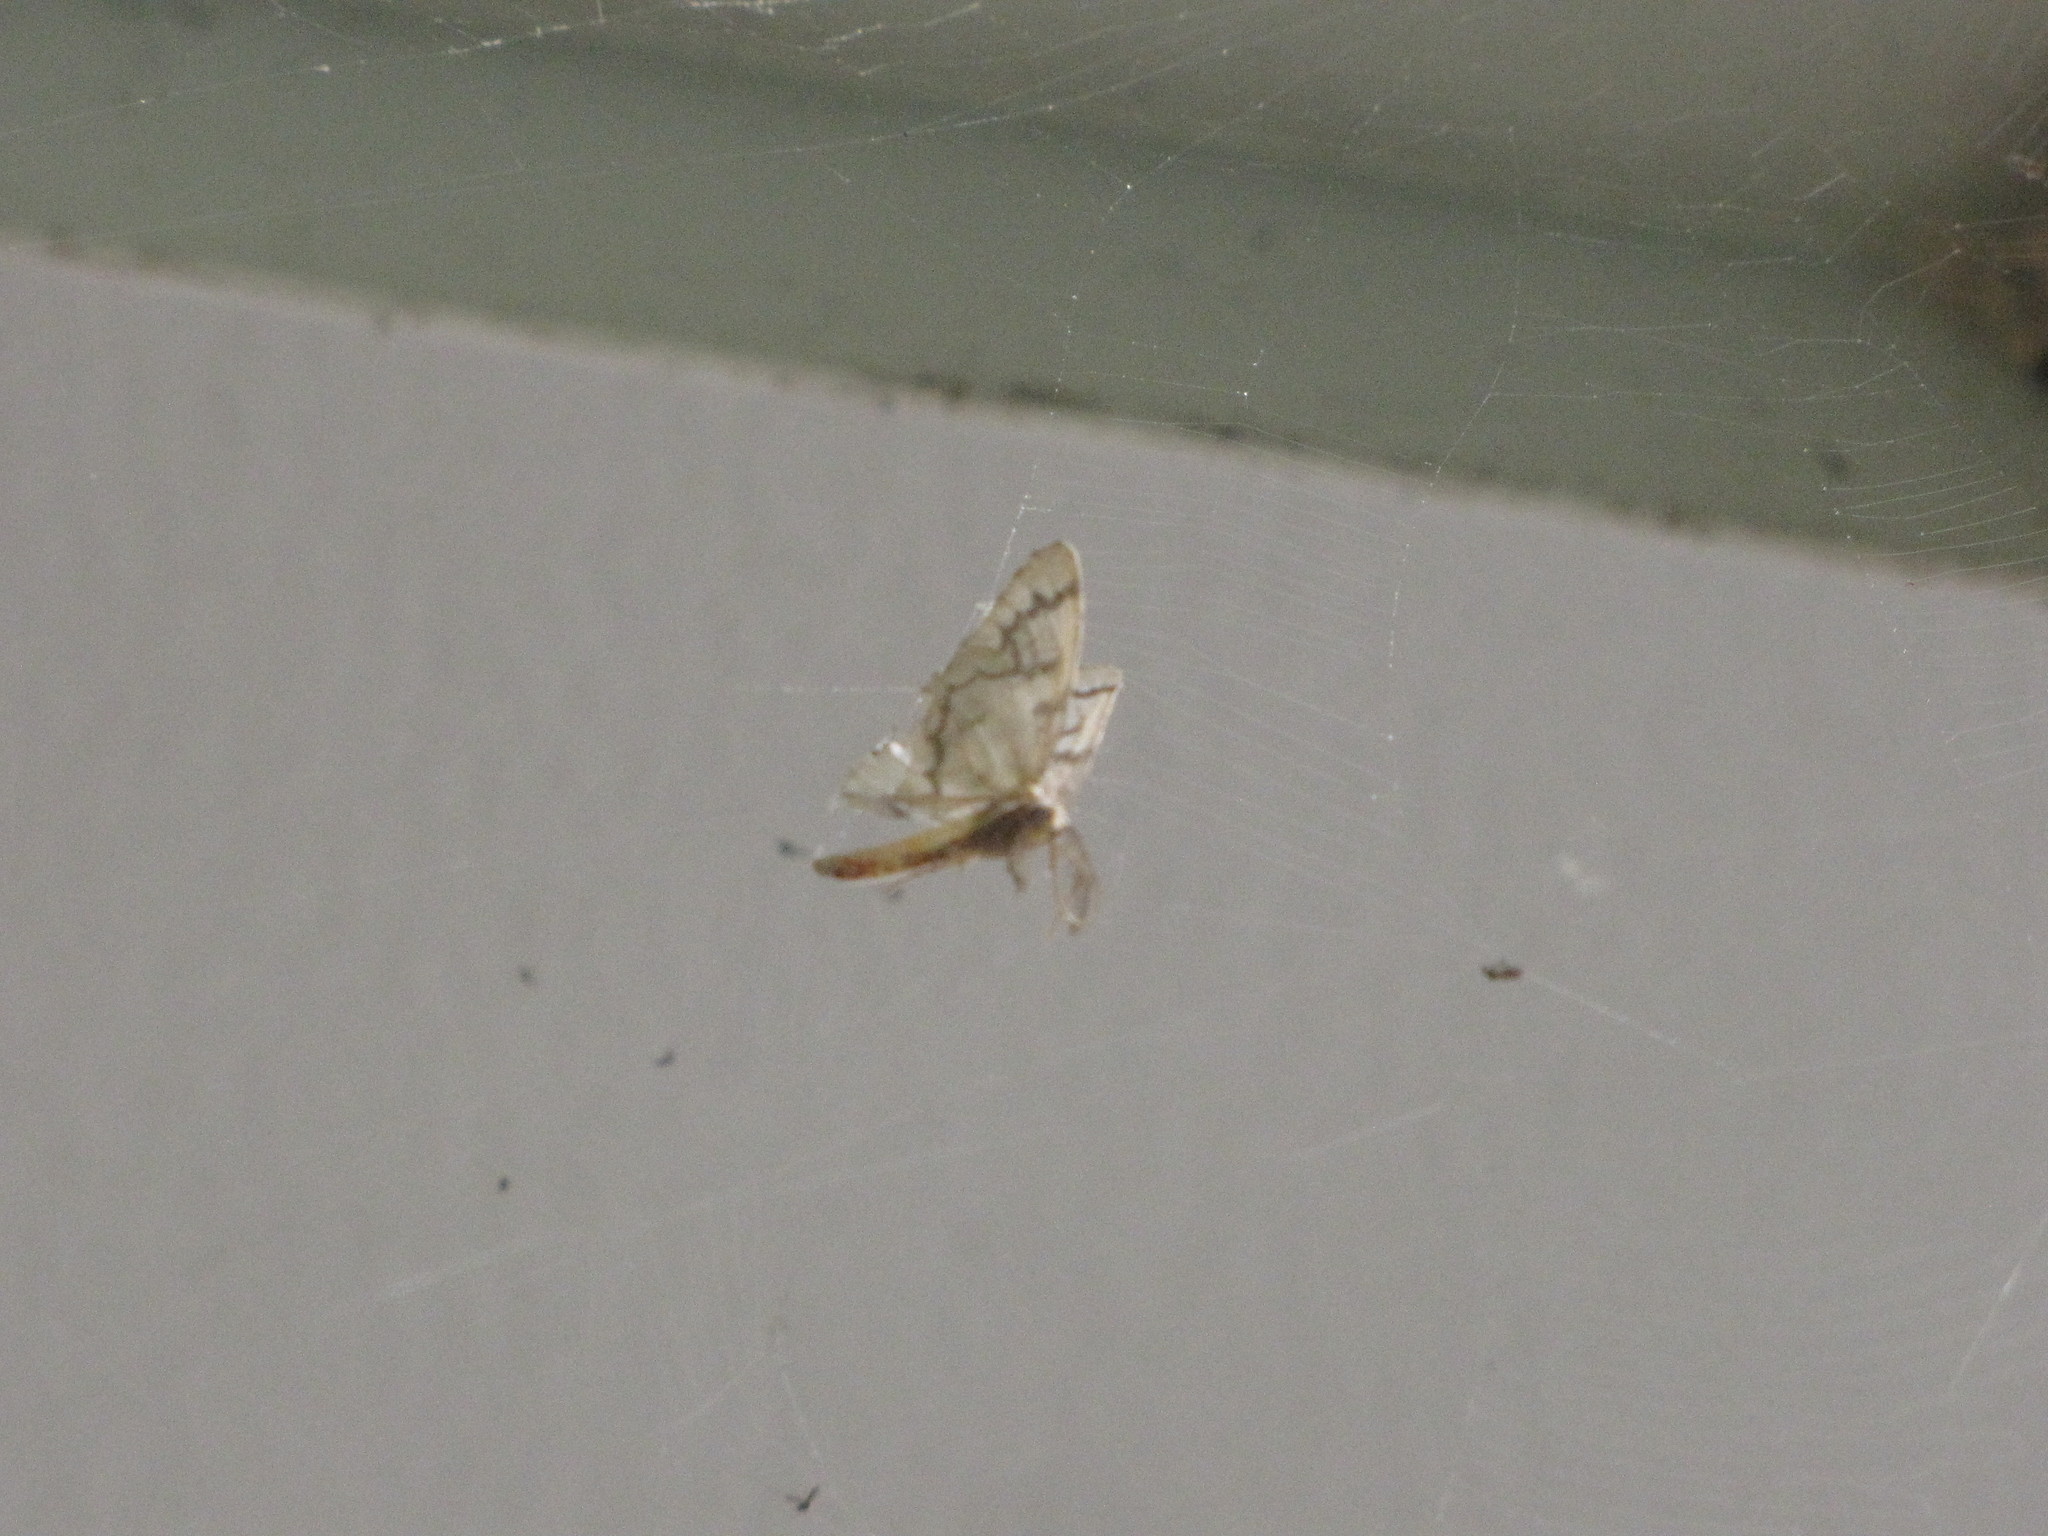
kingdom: Animalia
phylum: Arthropoda
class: Insecta
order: Lepidoptera
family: Geometridae
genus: Nepytia
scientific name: Nepytia phantasmaria
